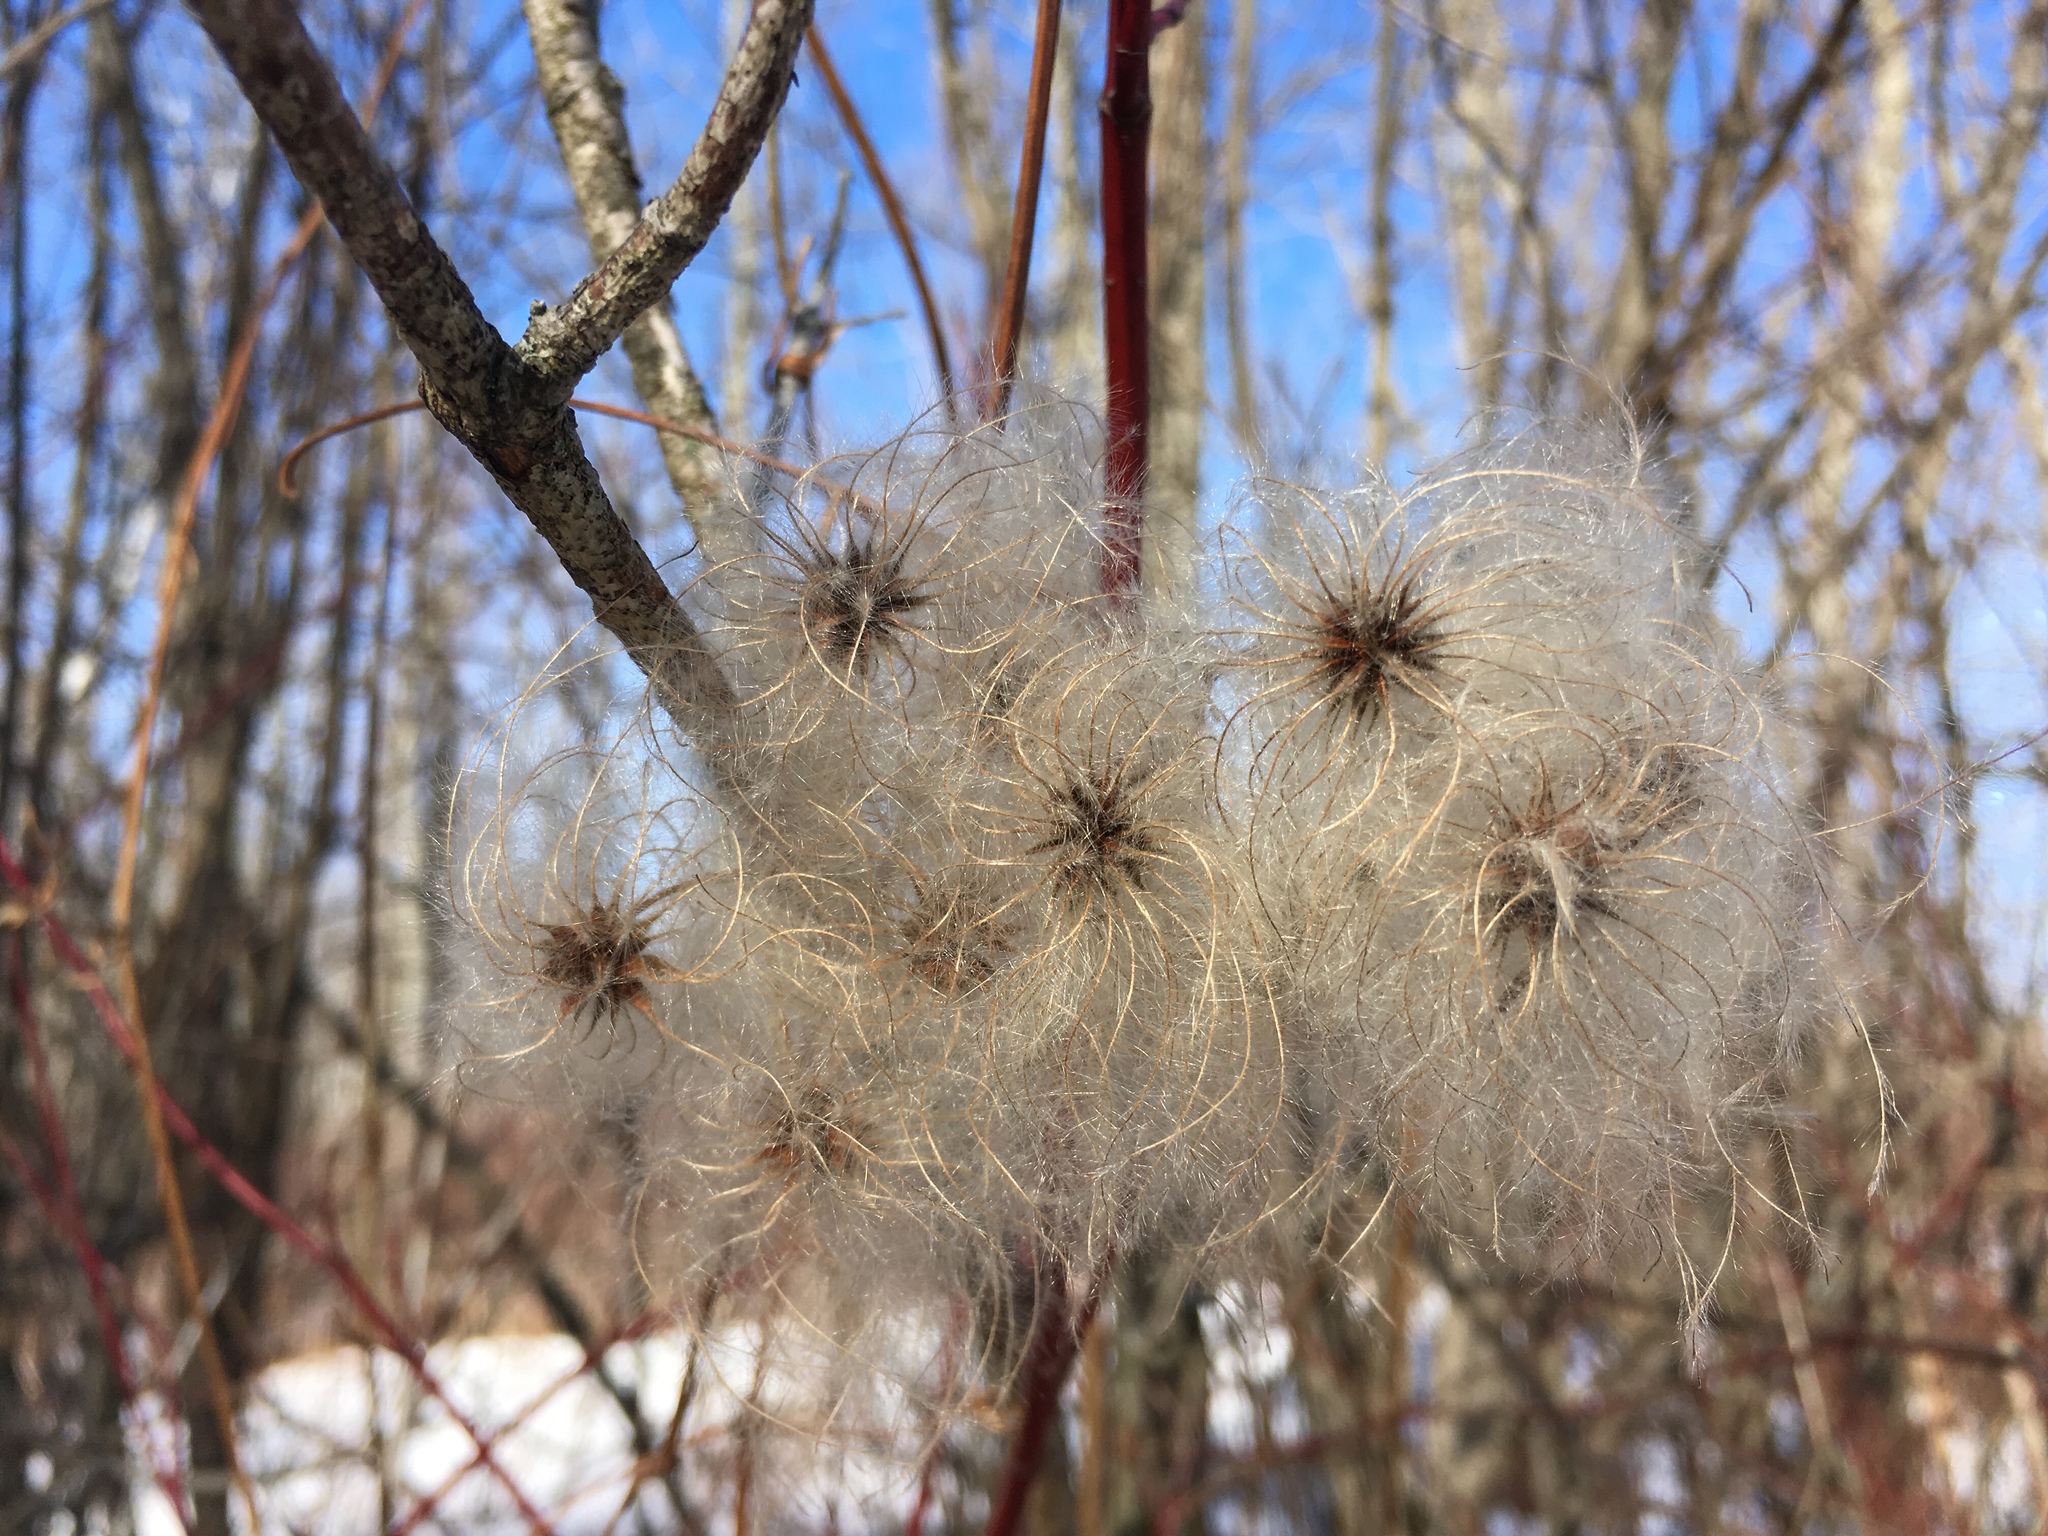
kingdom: Plantae
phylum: Tracheophyta
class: Magnoliopsida
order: Ranunculales
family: Ranunculaceae
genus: Clematis
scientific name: Clematis virginiana
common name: Virgin's-bower
